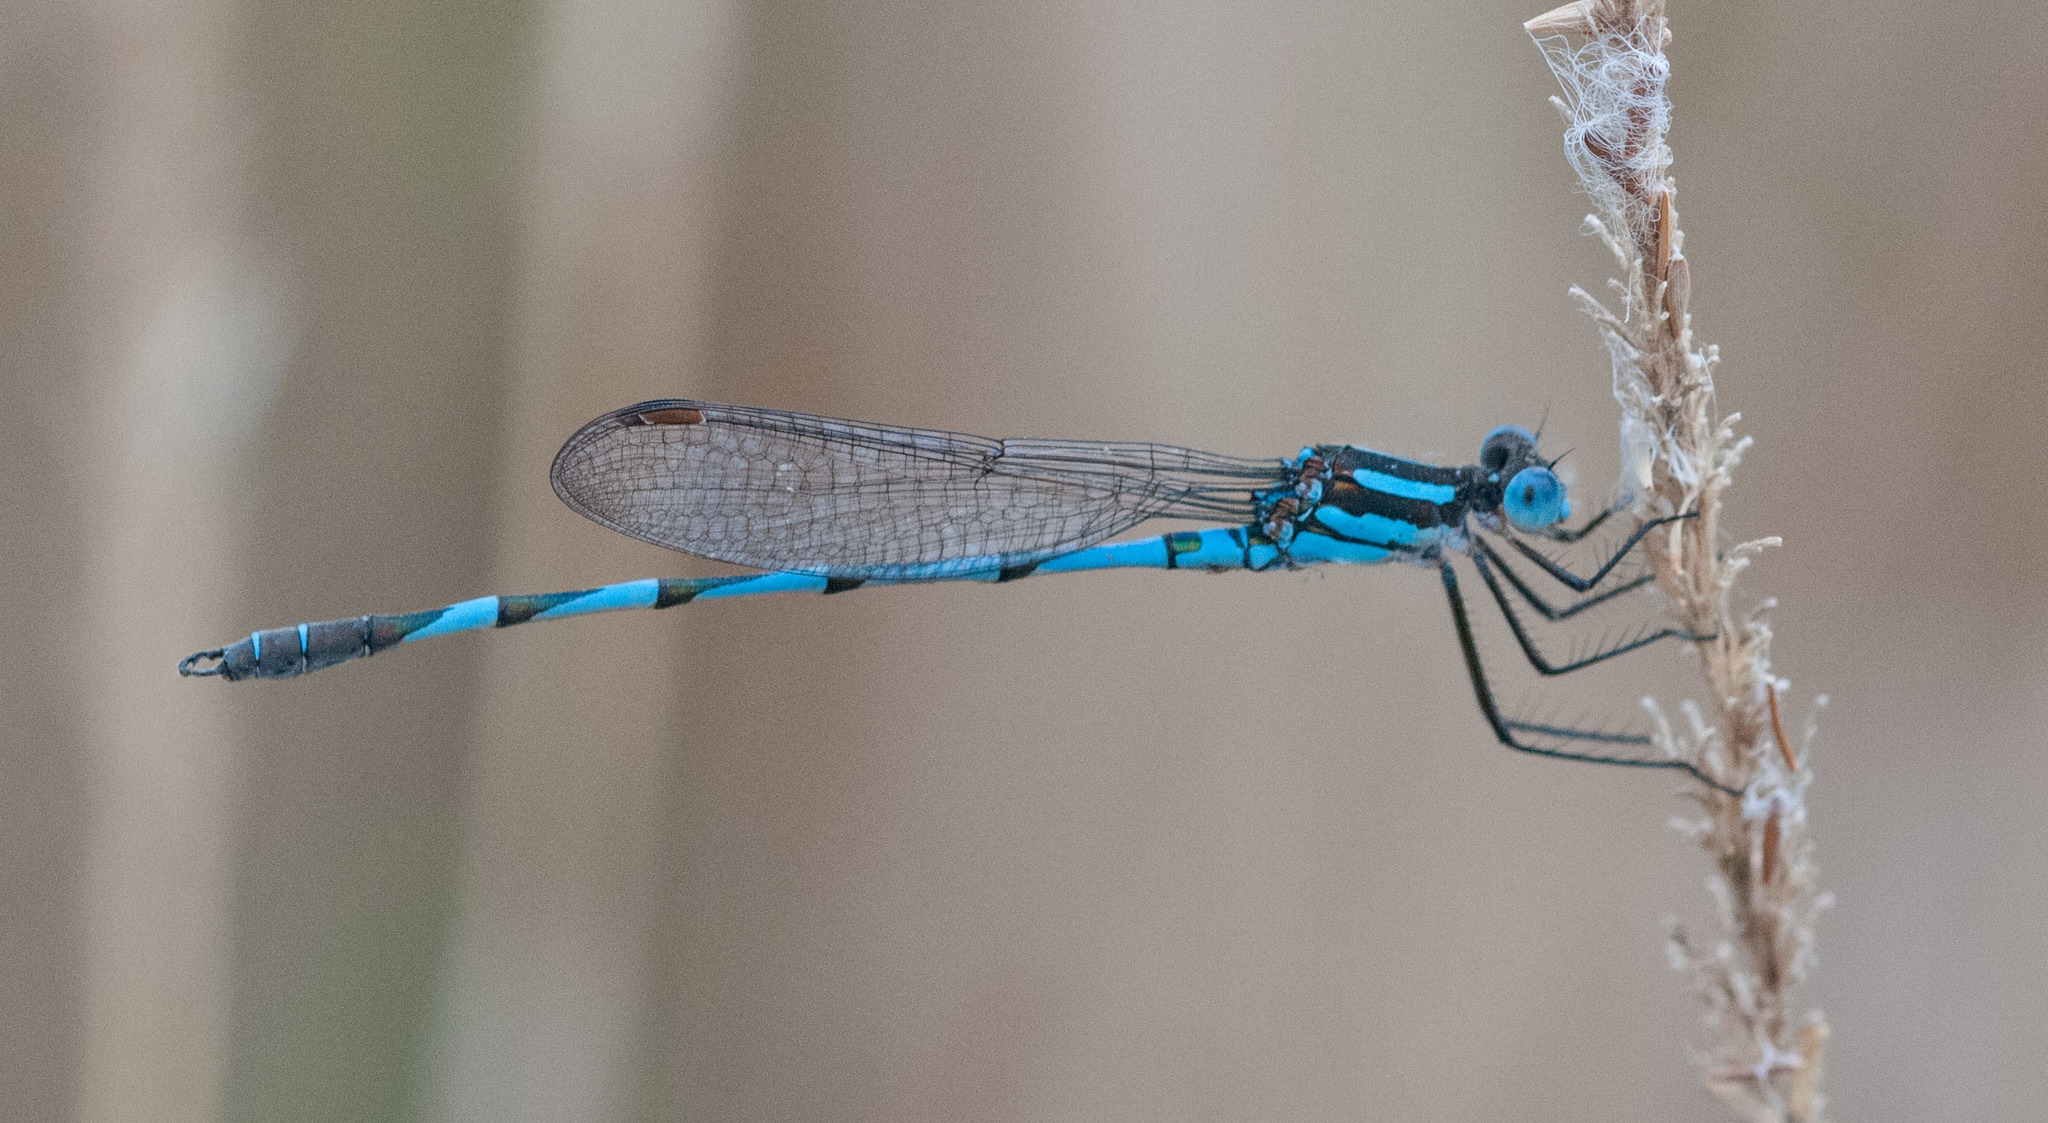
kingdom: Animalia
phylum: Arthropoda
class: Insecta
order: Odonata
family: Lestidae
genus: Austrolestes
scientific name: Austrolestes annulosus
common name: Blue ringtail
